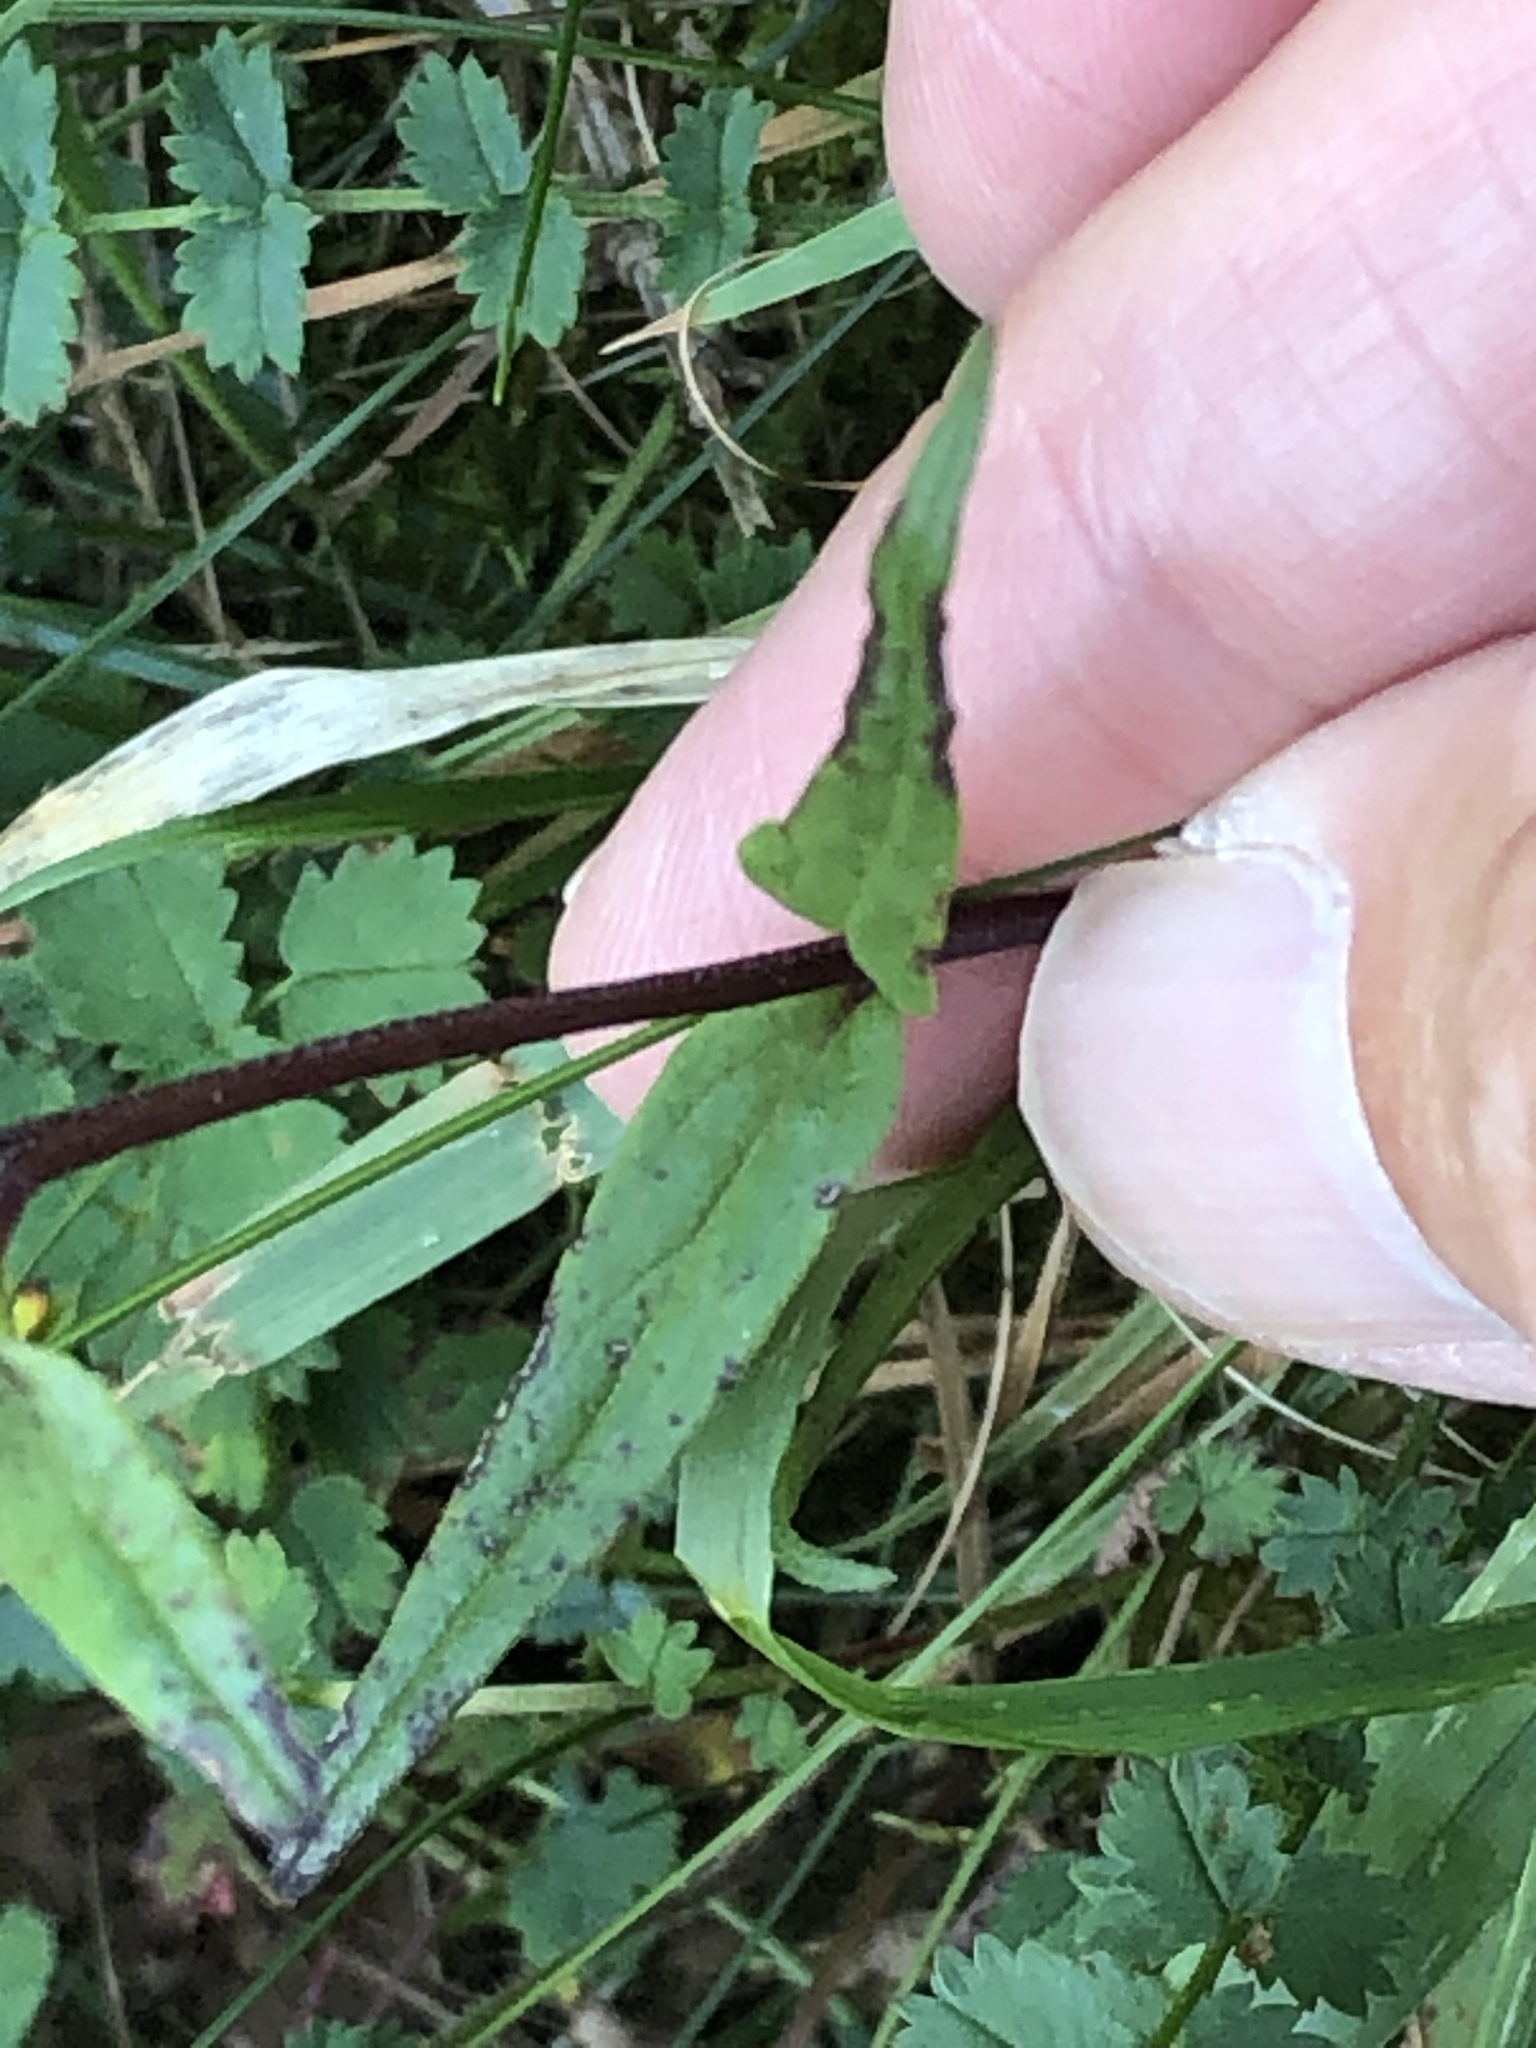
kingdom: Plantae
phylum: Tracheophyta
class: Magnoliopsida
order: Lamiales
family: Orobanchaceae
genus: Melampyrum
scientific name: Melampyrum pratense
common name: Common cow-wheat
